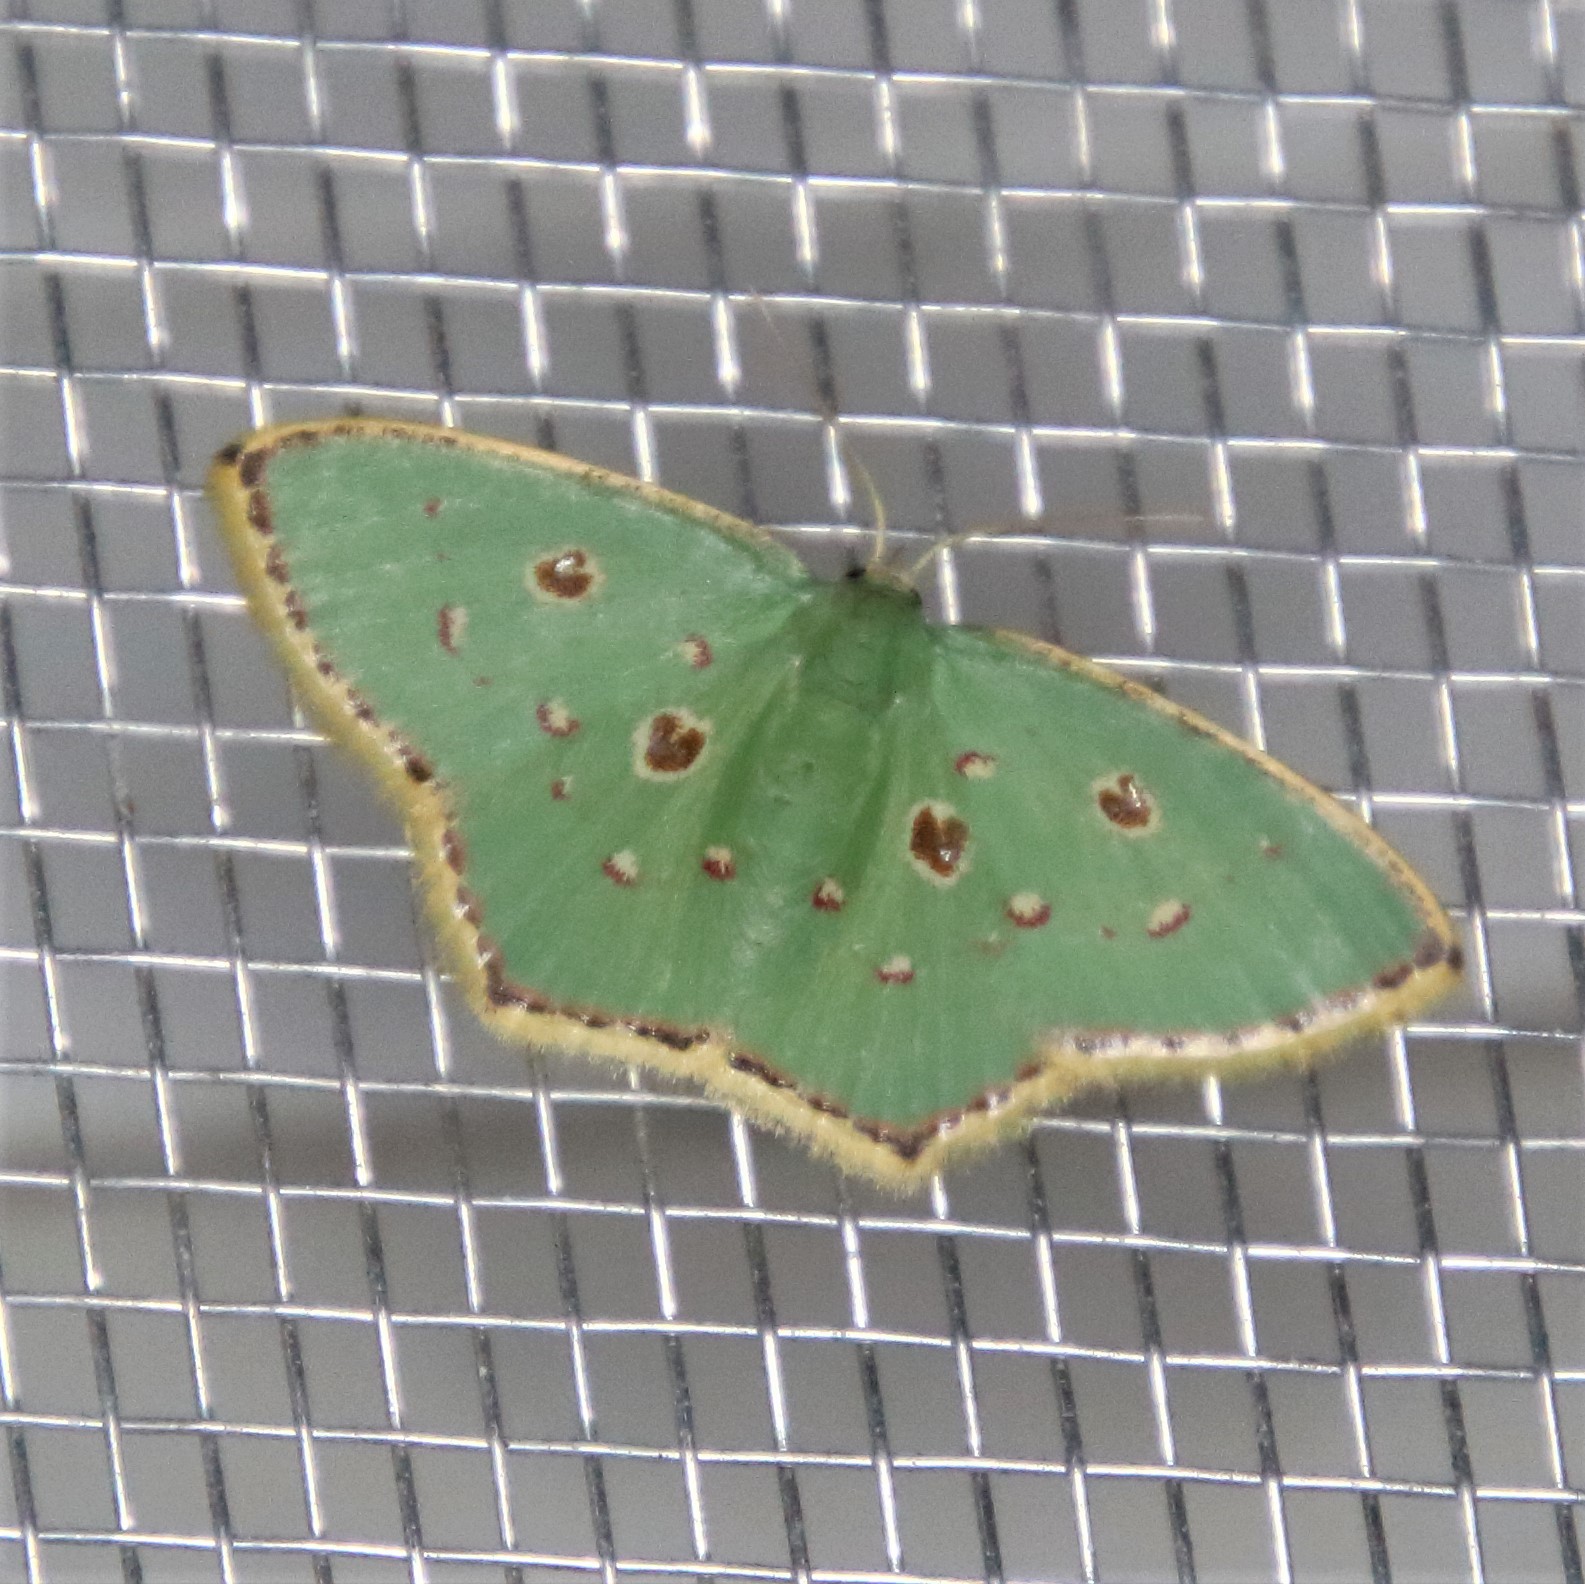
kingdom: Animalia
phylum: Arthropoda
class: Insecta
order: Lepidoptera
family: Geometridae
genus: Comostola
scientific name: Comostola laesaria
